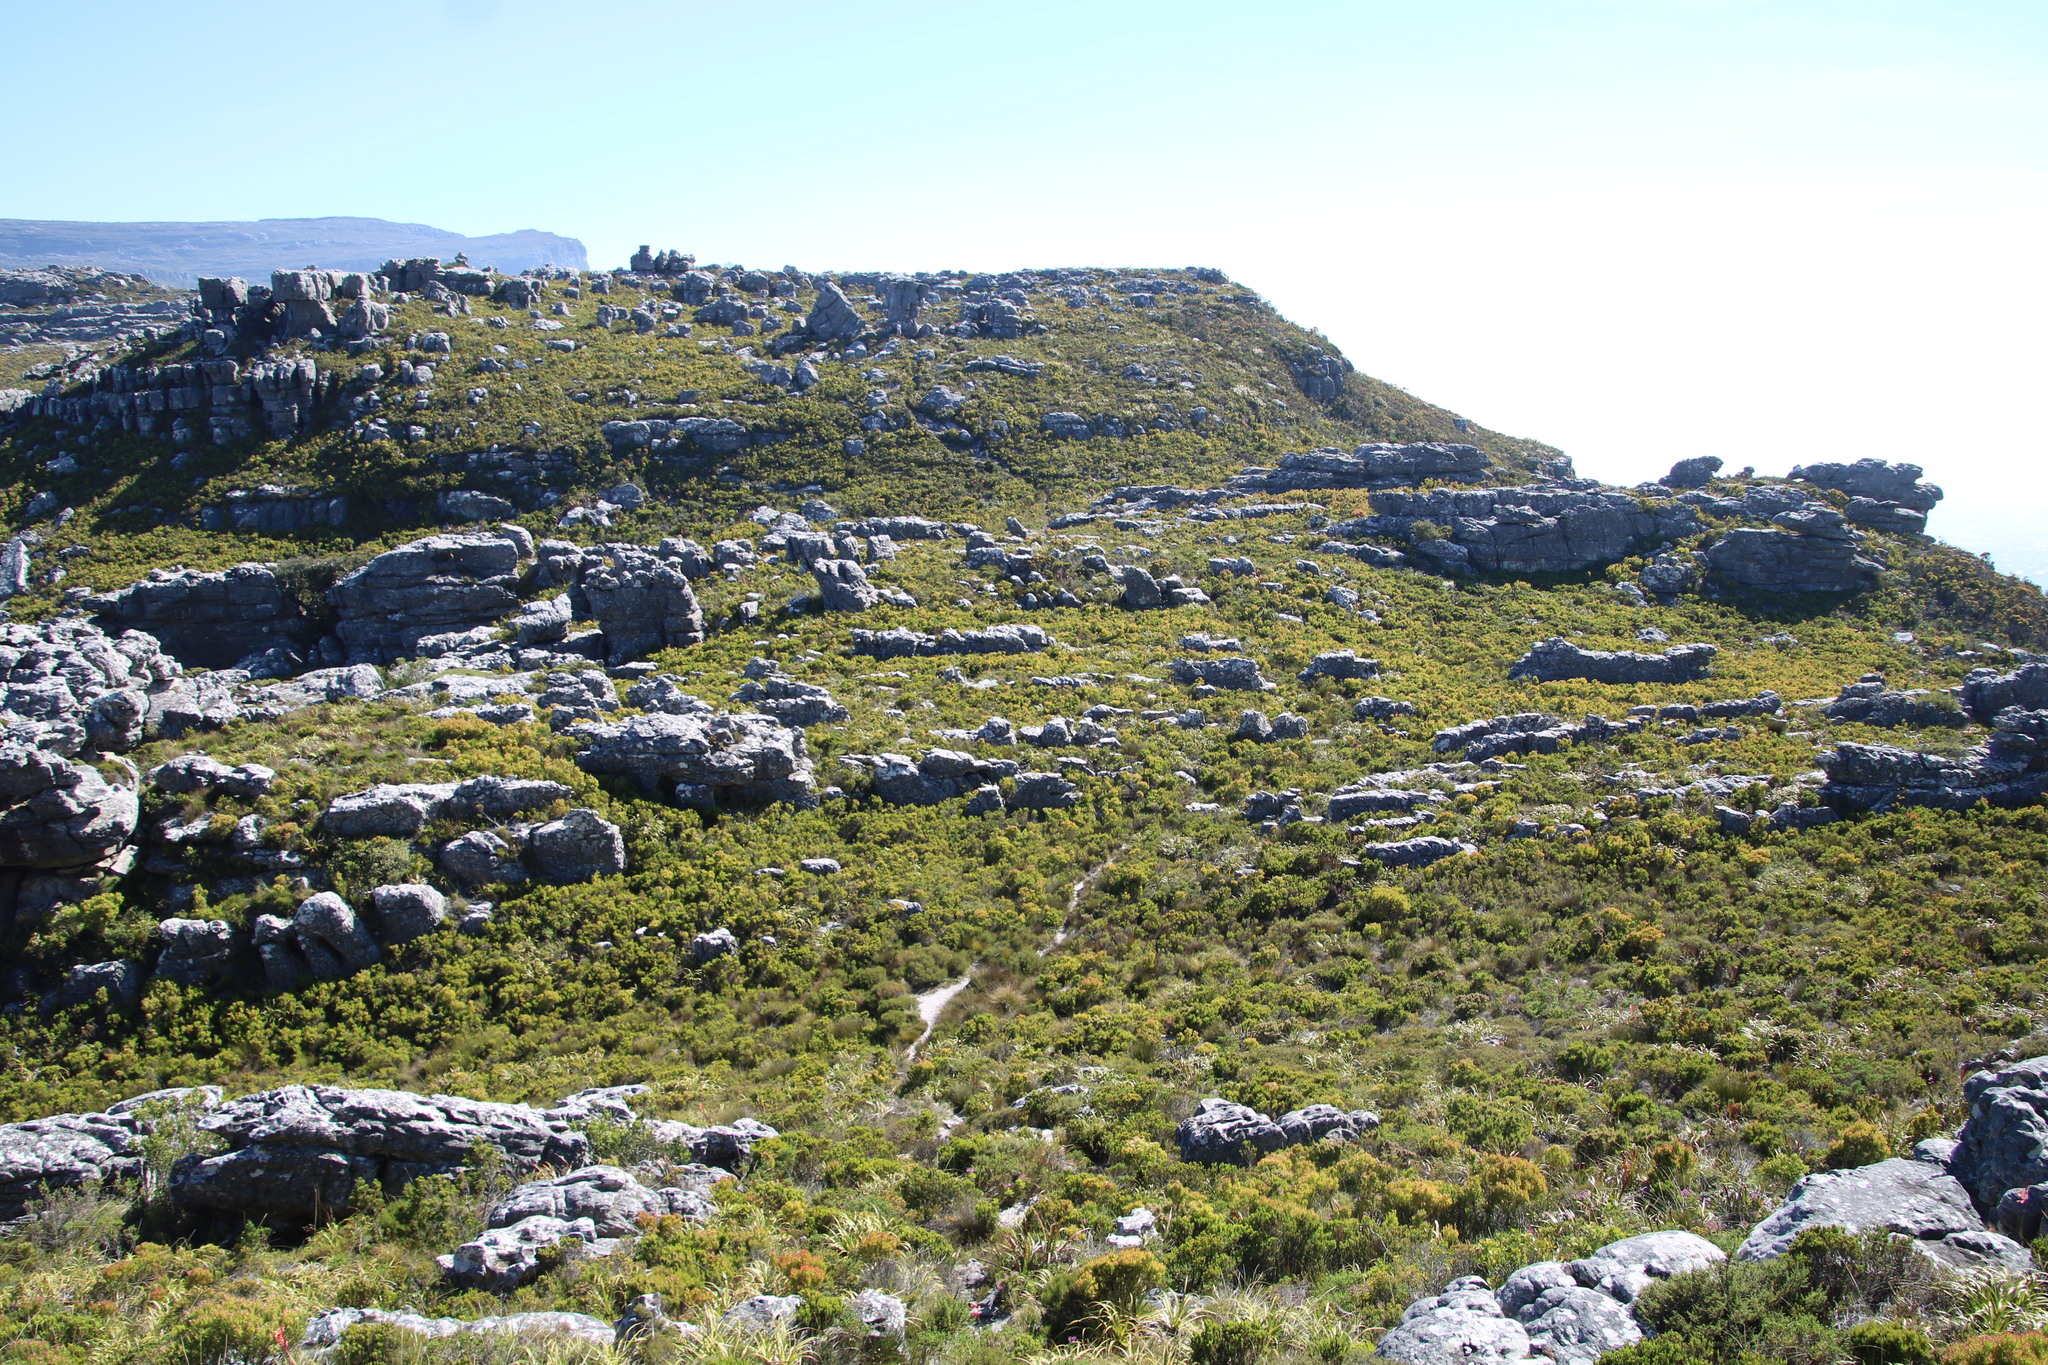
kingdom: Plantae
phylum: Tracheophyta
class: Magnoliopsida
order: Proteales
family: Proteaceae
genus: Leucadendron
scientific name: Leucadendron xanthoconus
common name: Sickle-leaf conebush
